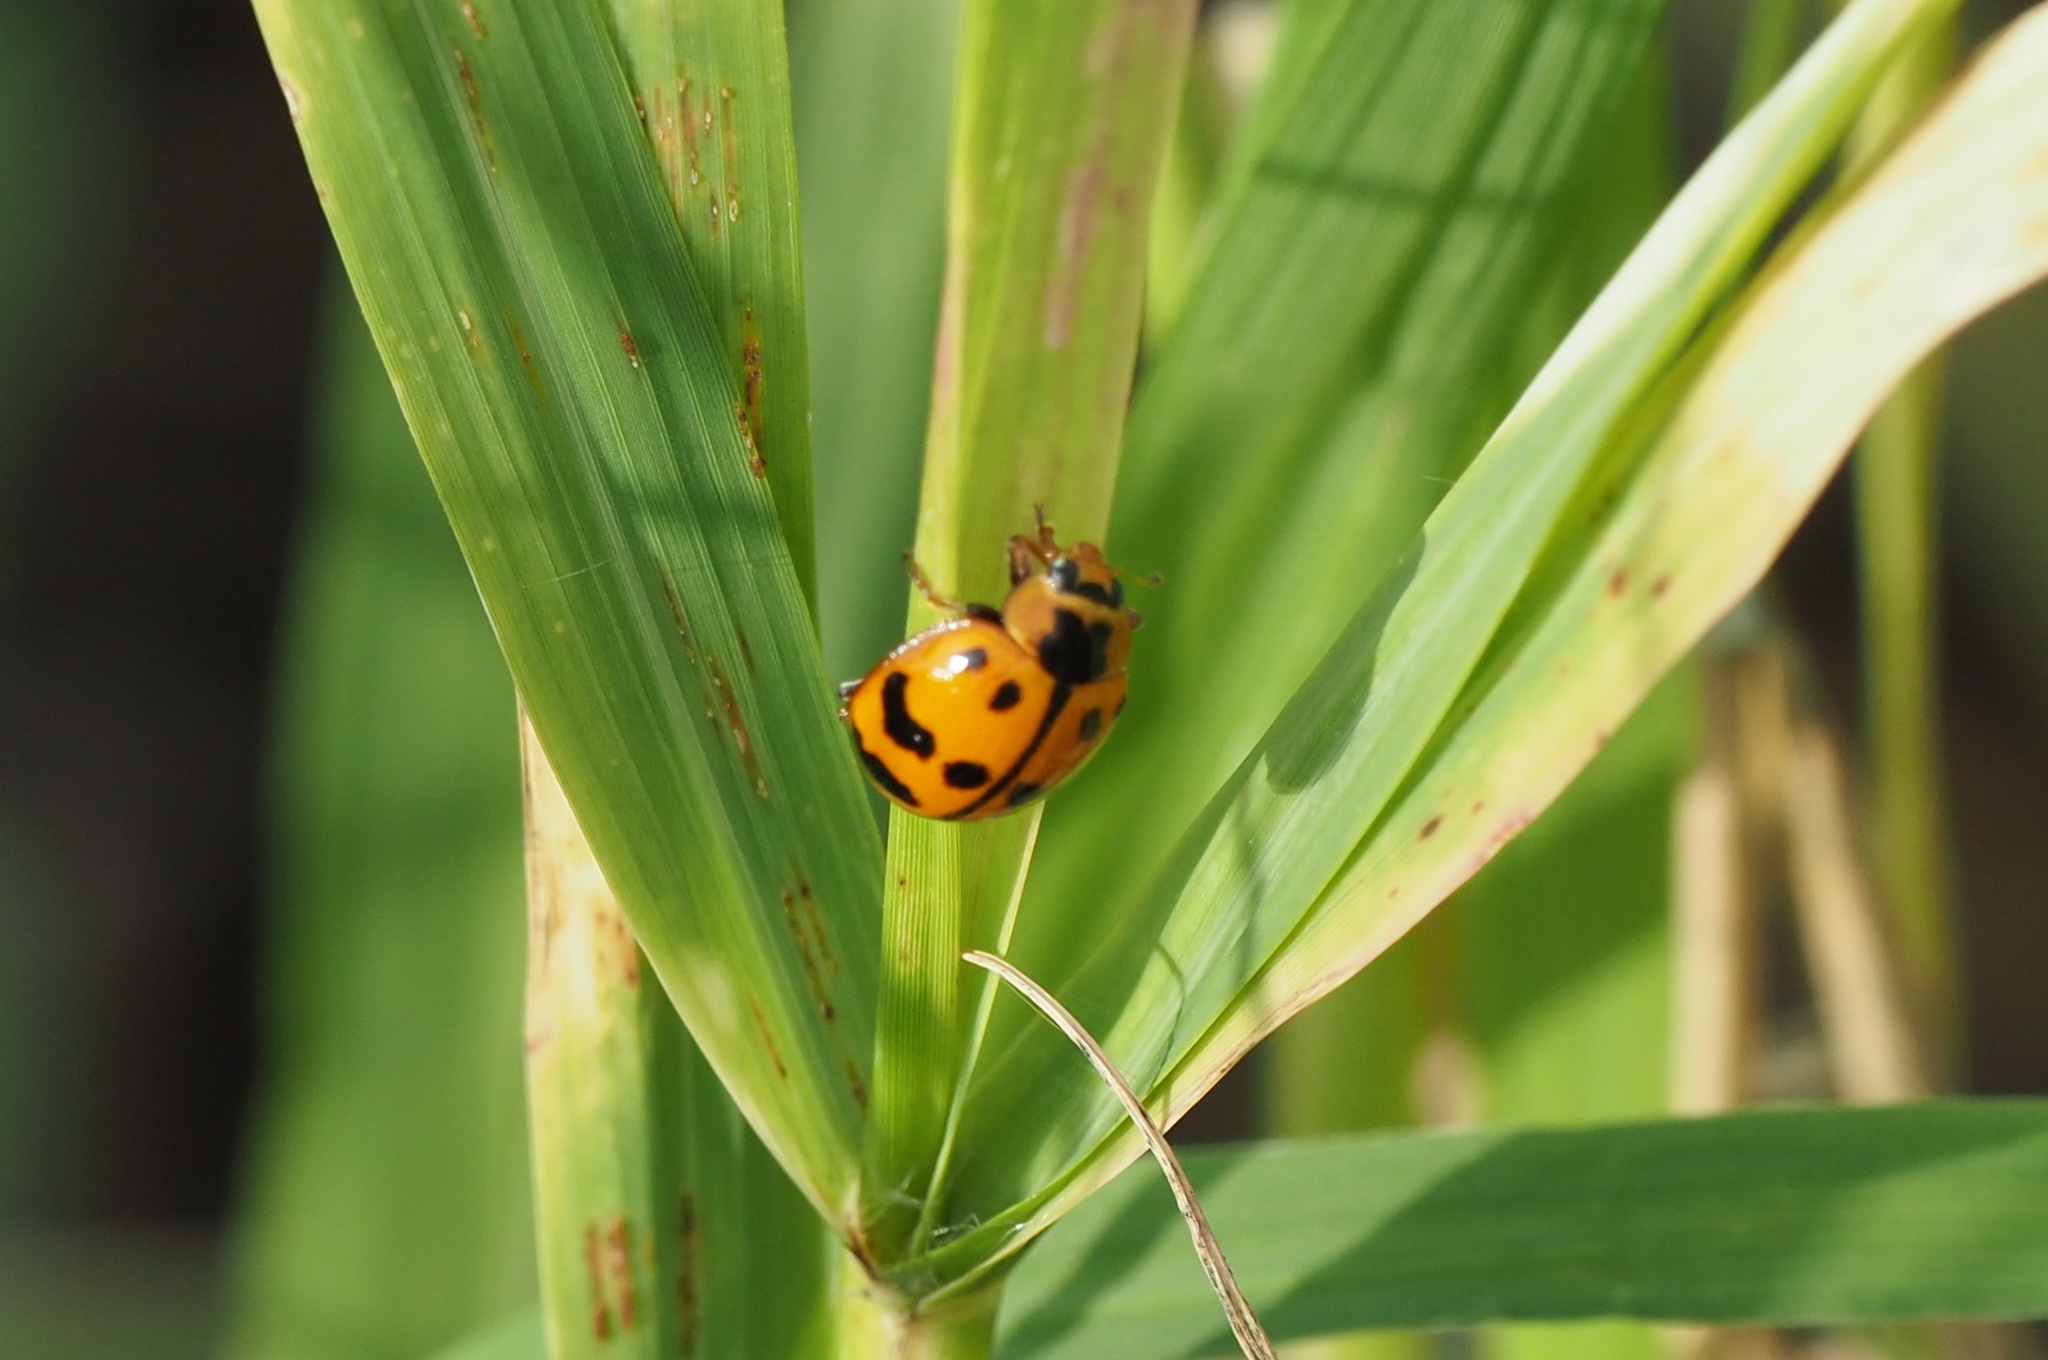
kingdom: Animalia
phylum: Arthropoda
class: Insecta
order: Coleoptera
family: Coccinellidae
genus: Harmonia
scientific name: Harmonia octomaculata
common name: Lady beetle
